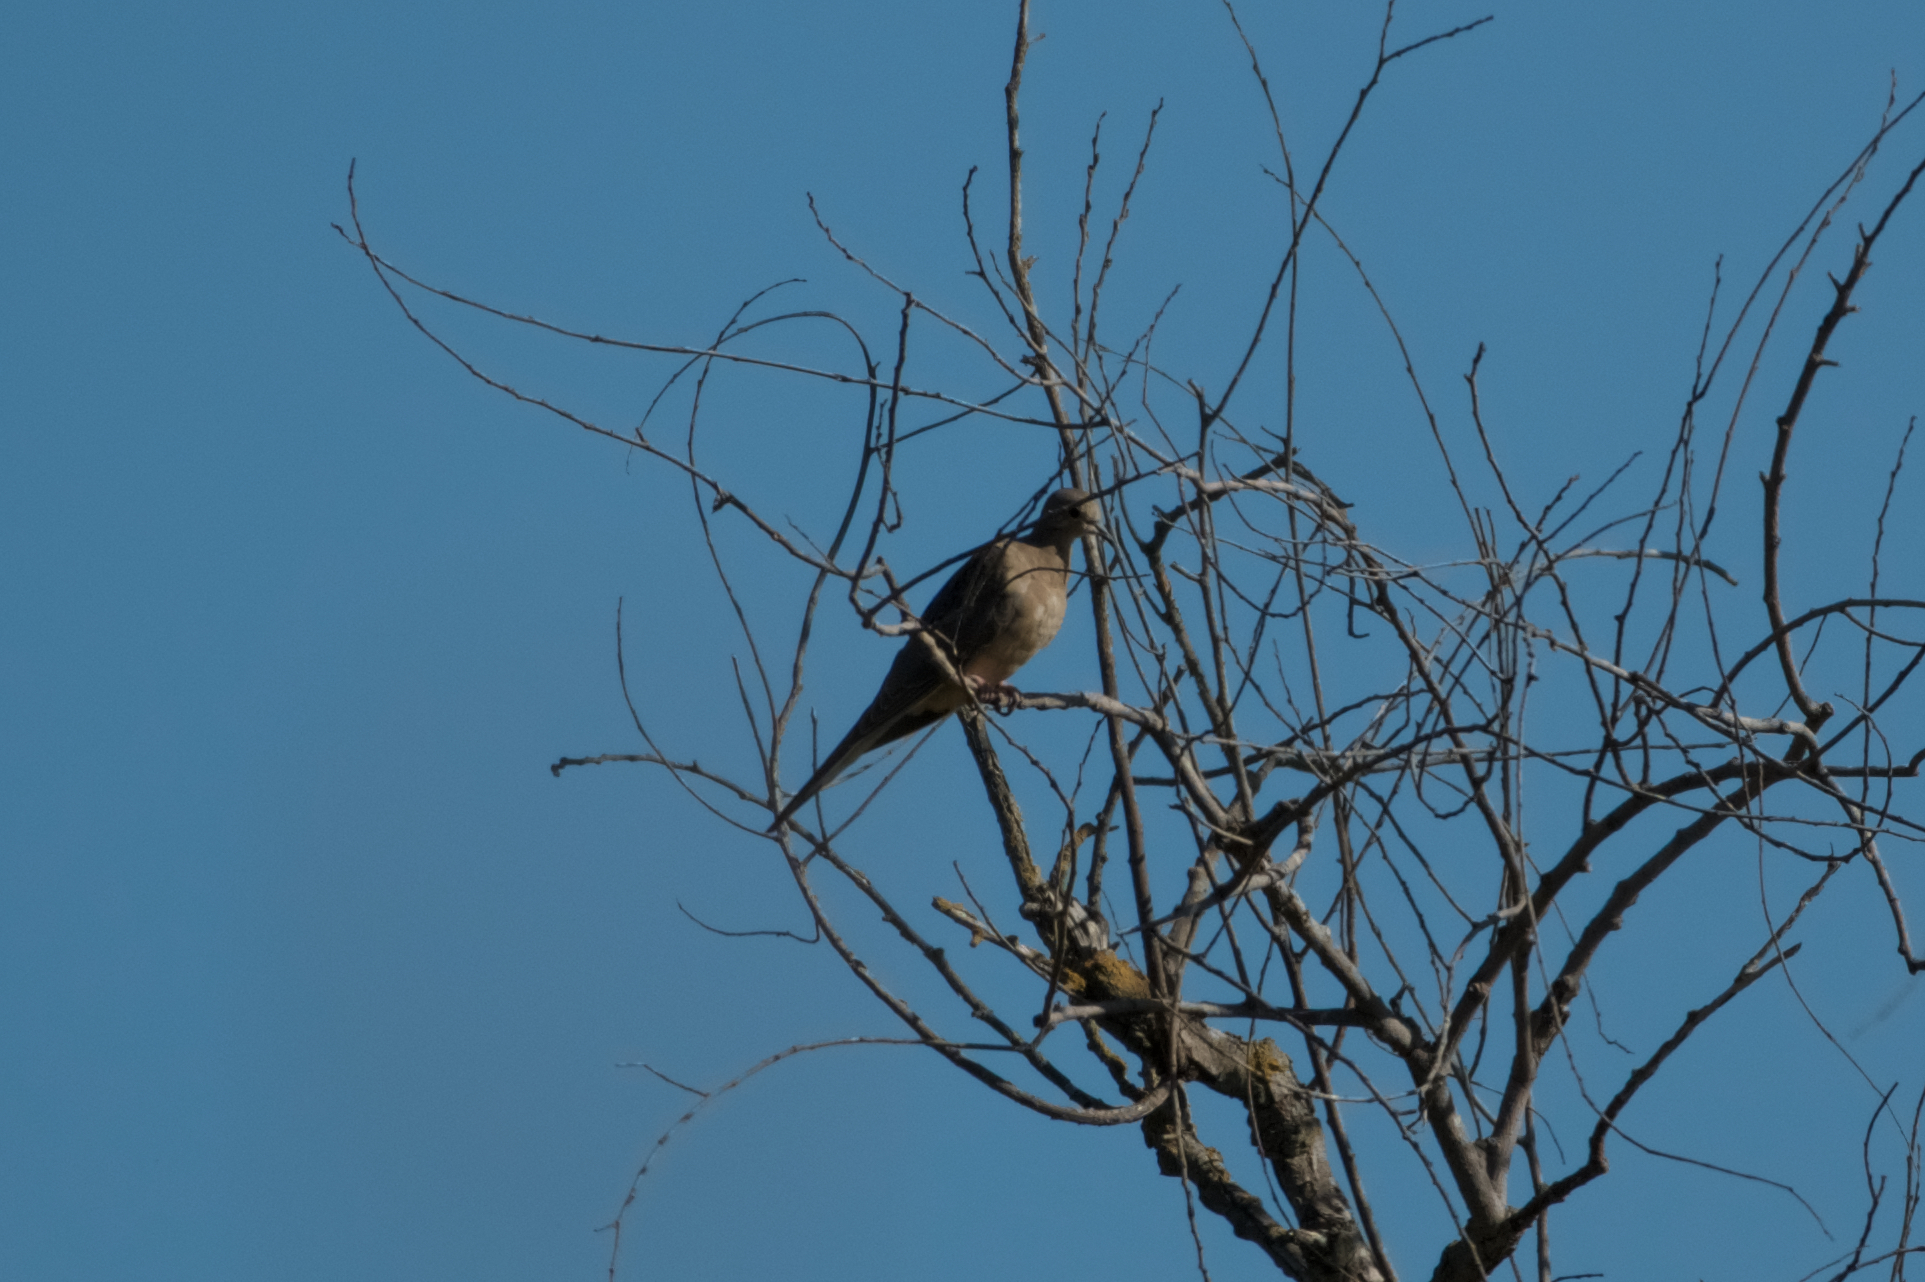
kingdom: Animalia
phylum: Chordata
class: Aves
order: Columbiformes
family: Columbidae
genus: Zenaida
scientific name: Zenaida macroura
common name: Mourning dove
